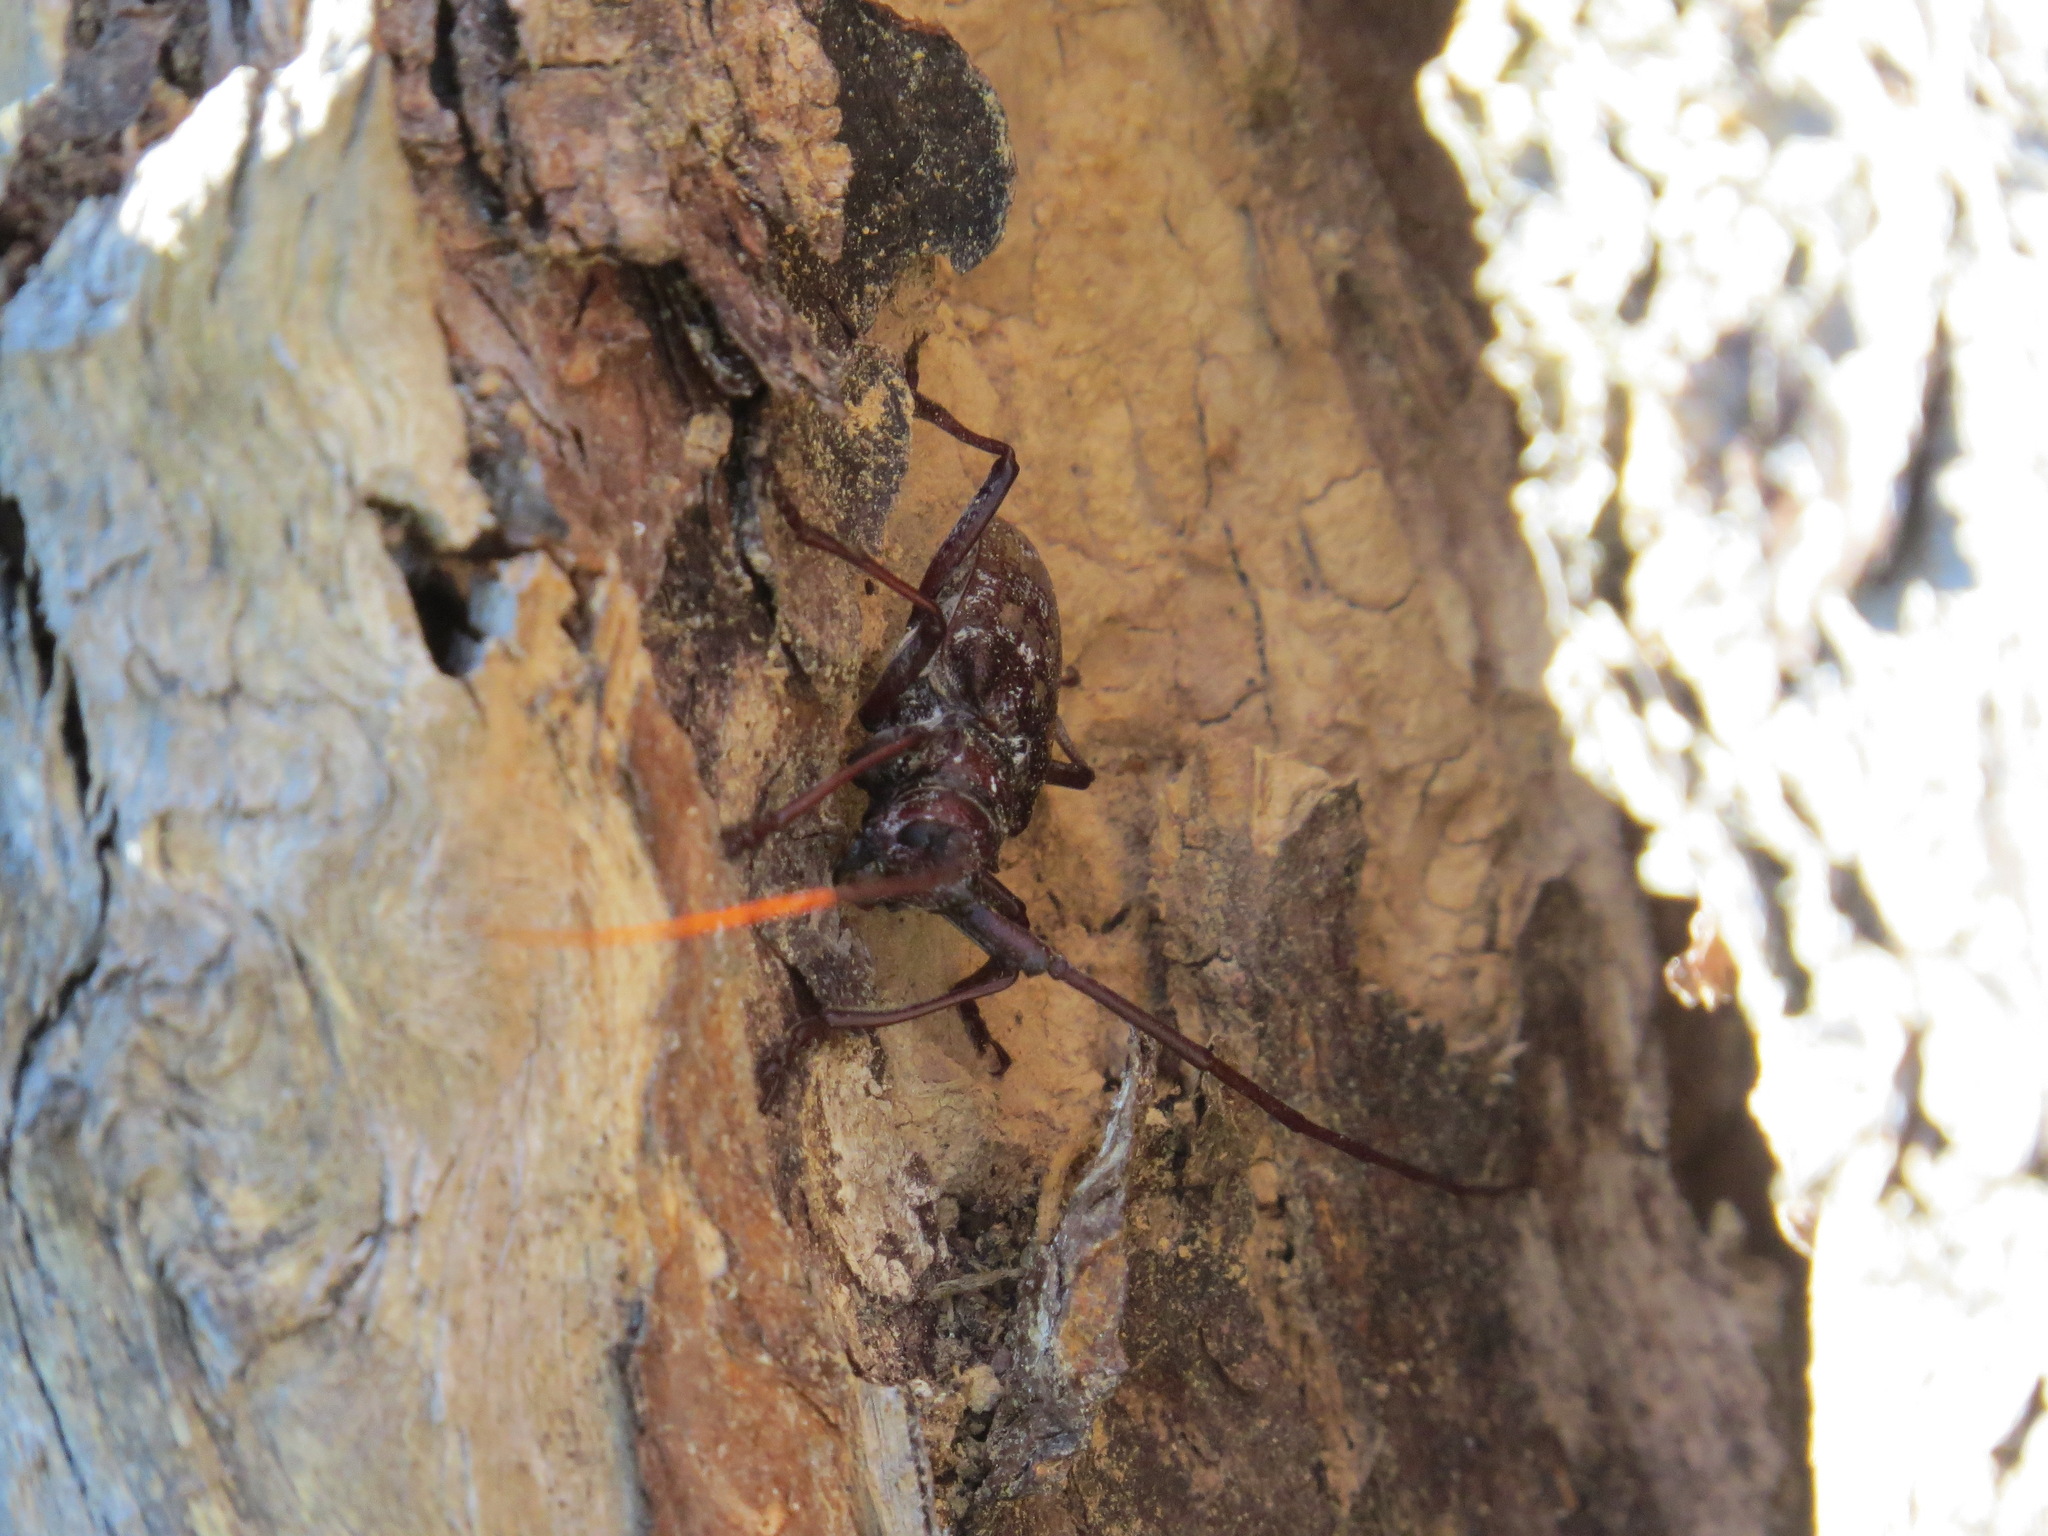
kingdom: Animalia
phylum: Arthropoda
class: Insecta
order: Coleoptera
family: Cerambycidae
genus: Monochamus
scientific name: Monochamus obtusus
